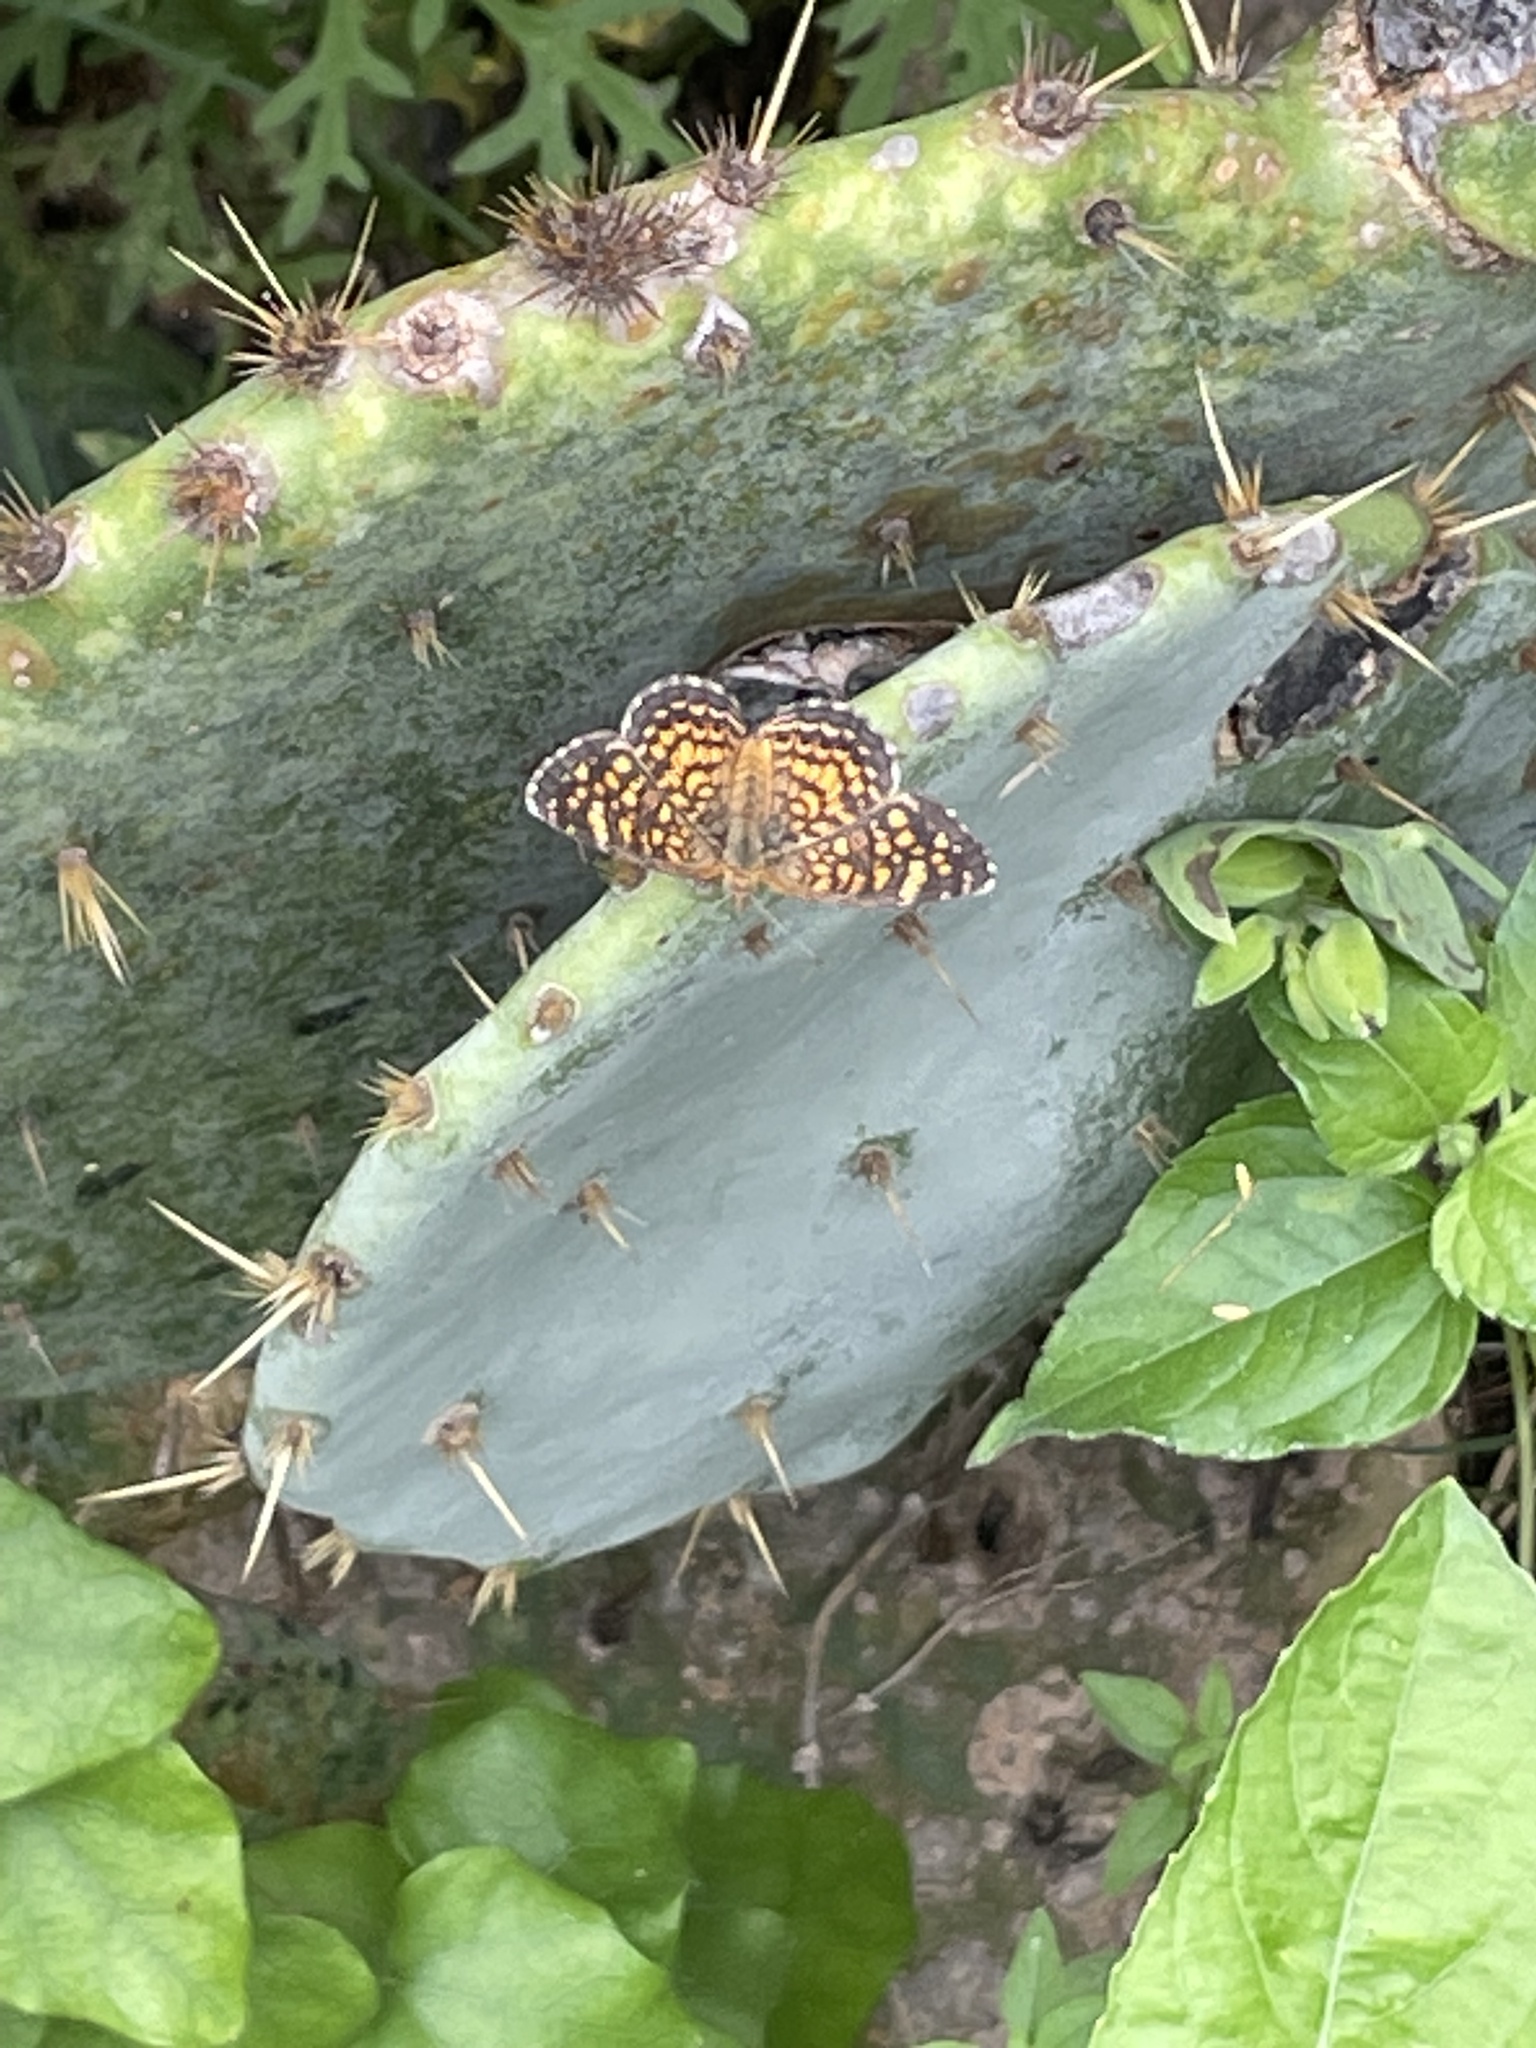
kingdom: Animalia
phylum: Arthropoda
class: Insecta
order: Lepidoptera
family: Nymphalidae
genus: Phyciodes
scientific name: Phyciodes vesta
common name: Vesta crescent
